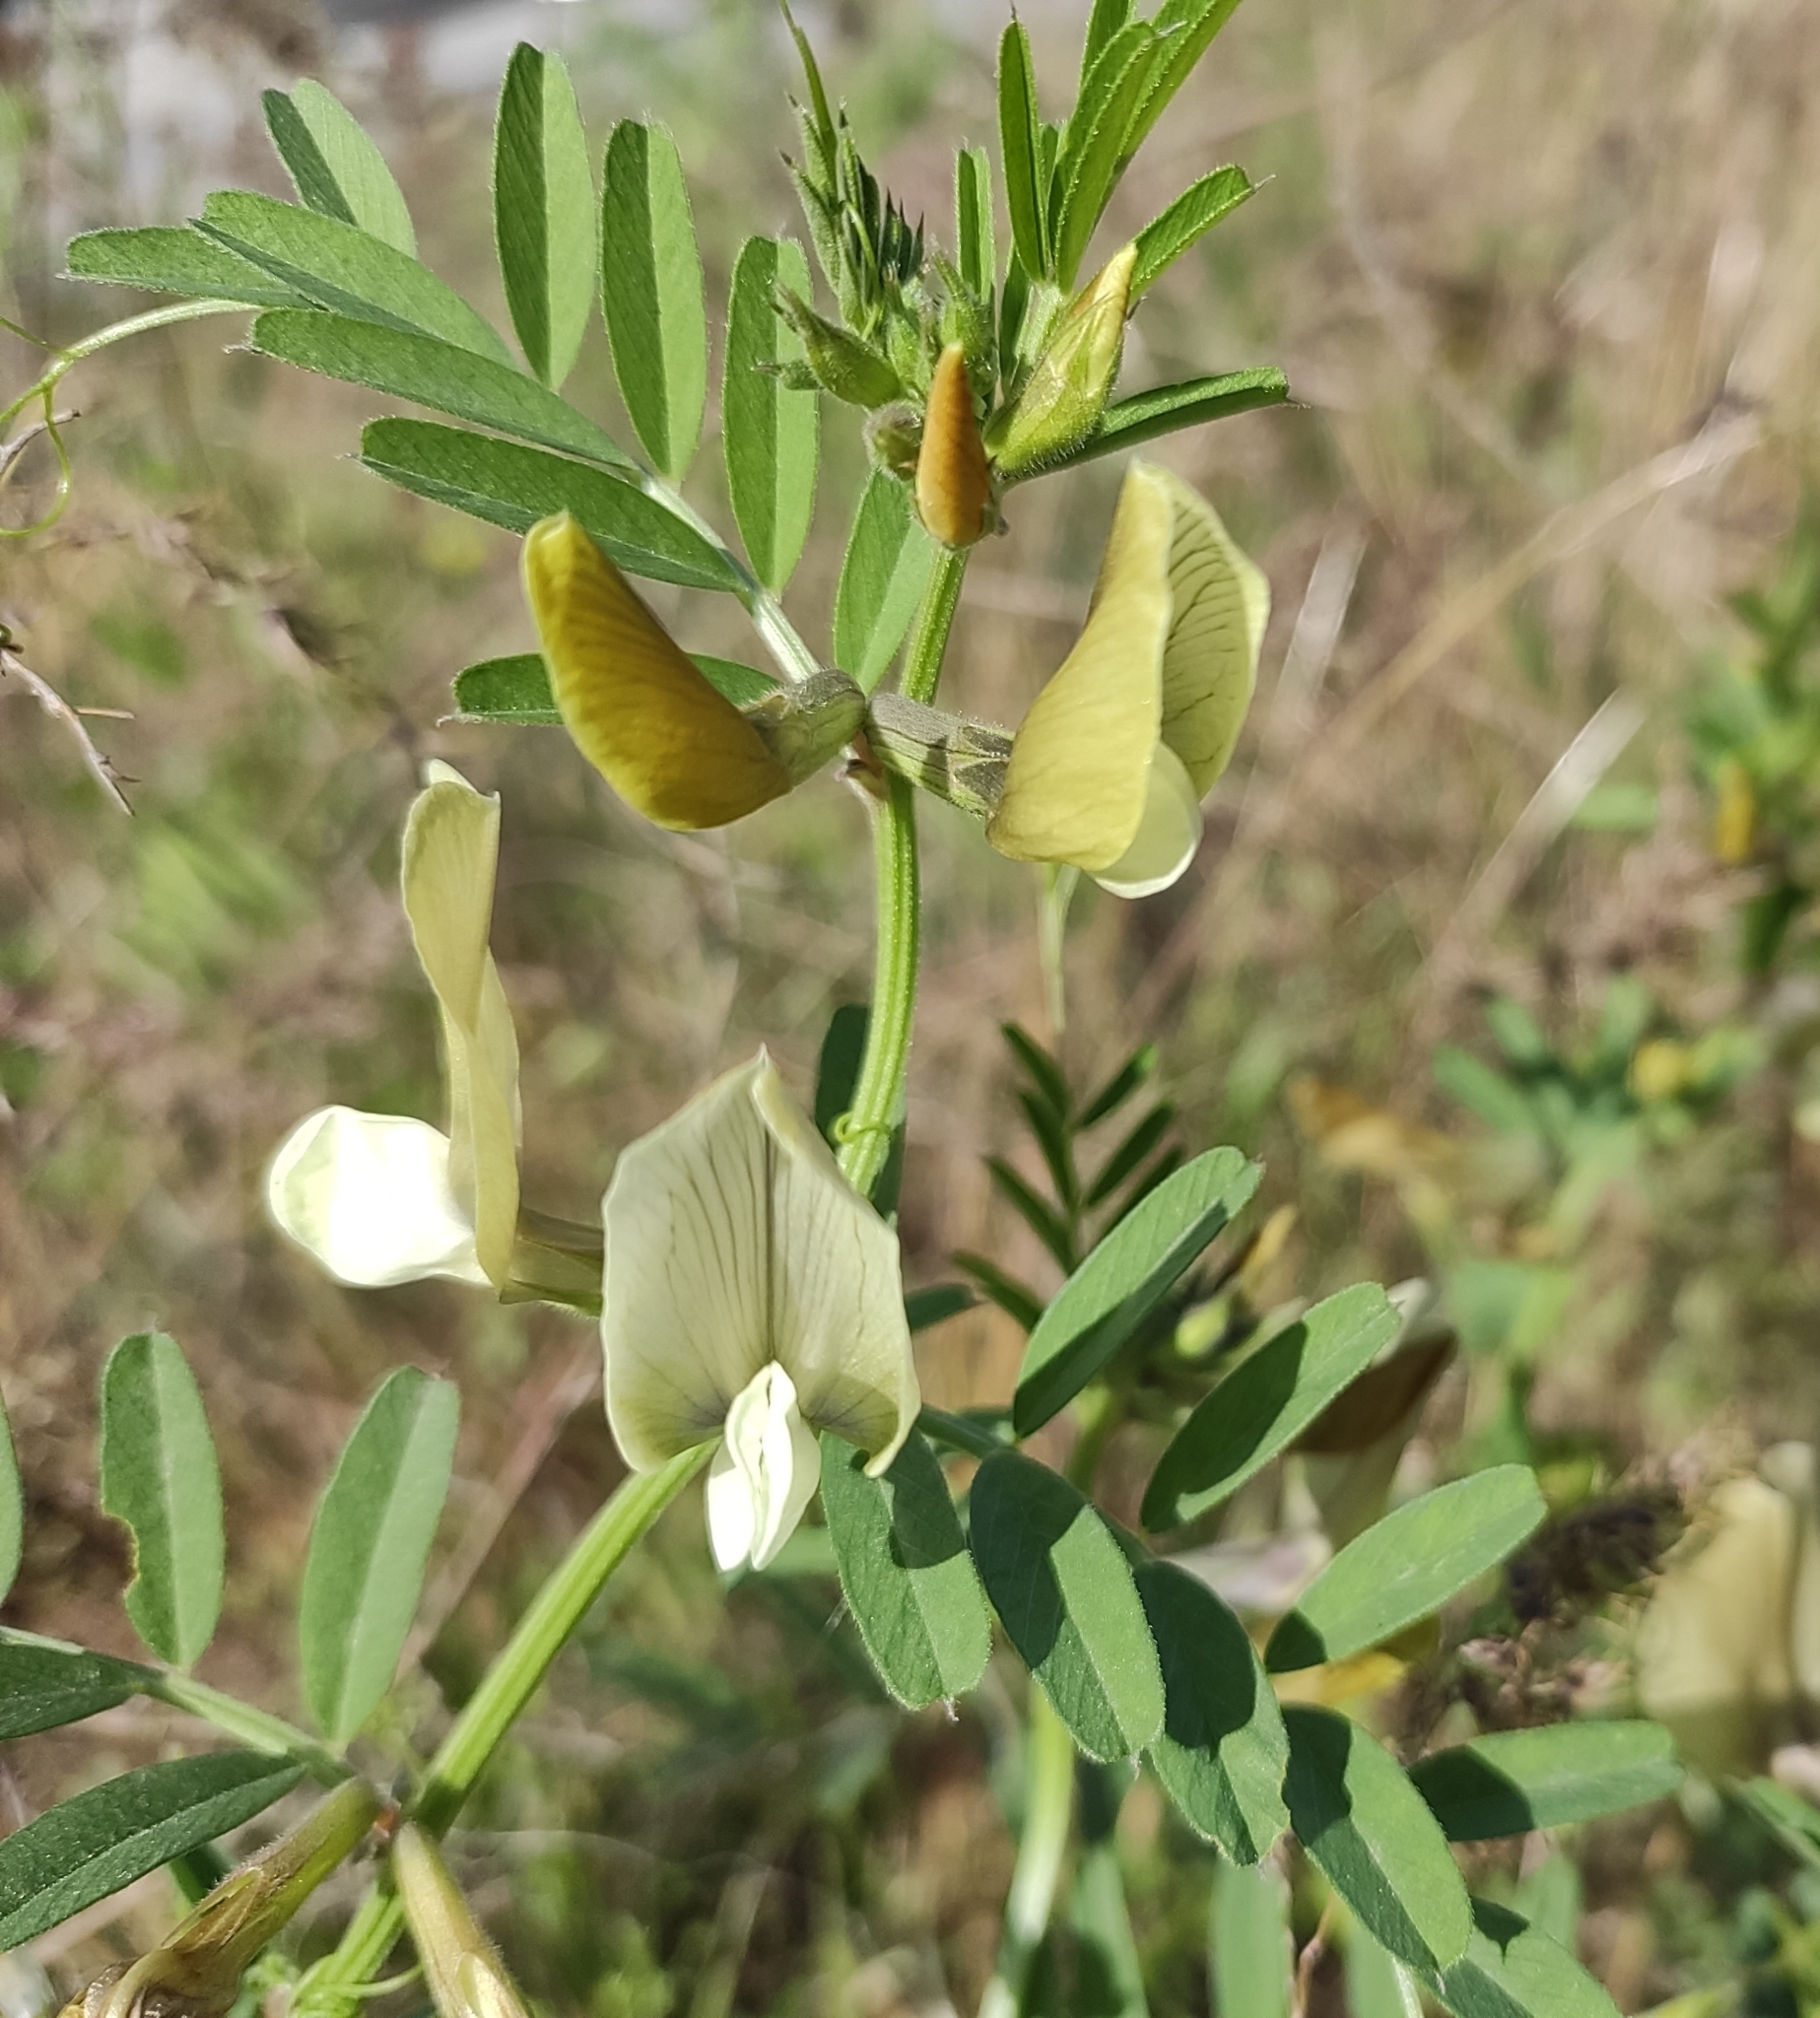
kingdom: Plantae
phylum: Tracheophyta
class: Magnoliopsida
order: Fabales
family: Fabaceae
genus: Vicia
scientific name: Vicia grandiflora
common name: Large yellow vetch
